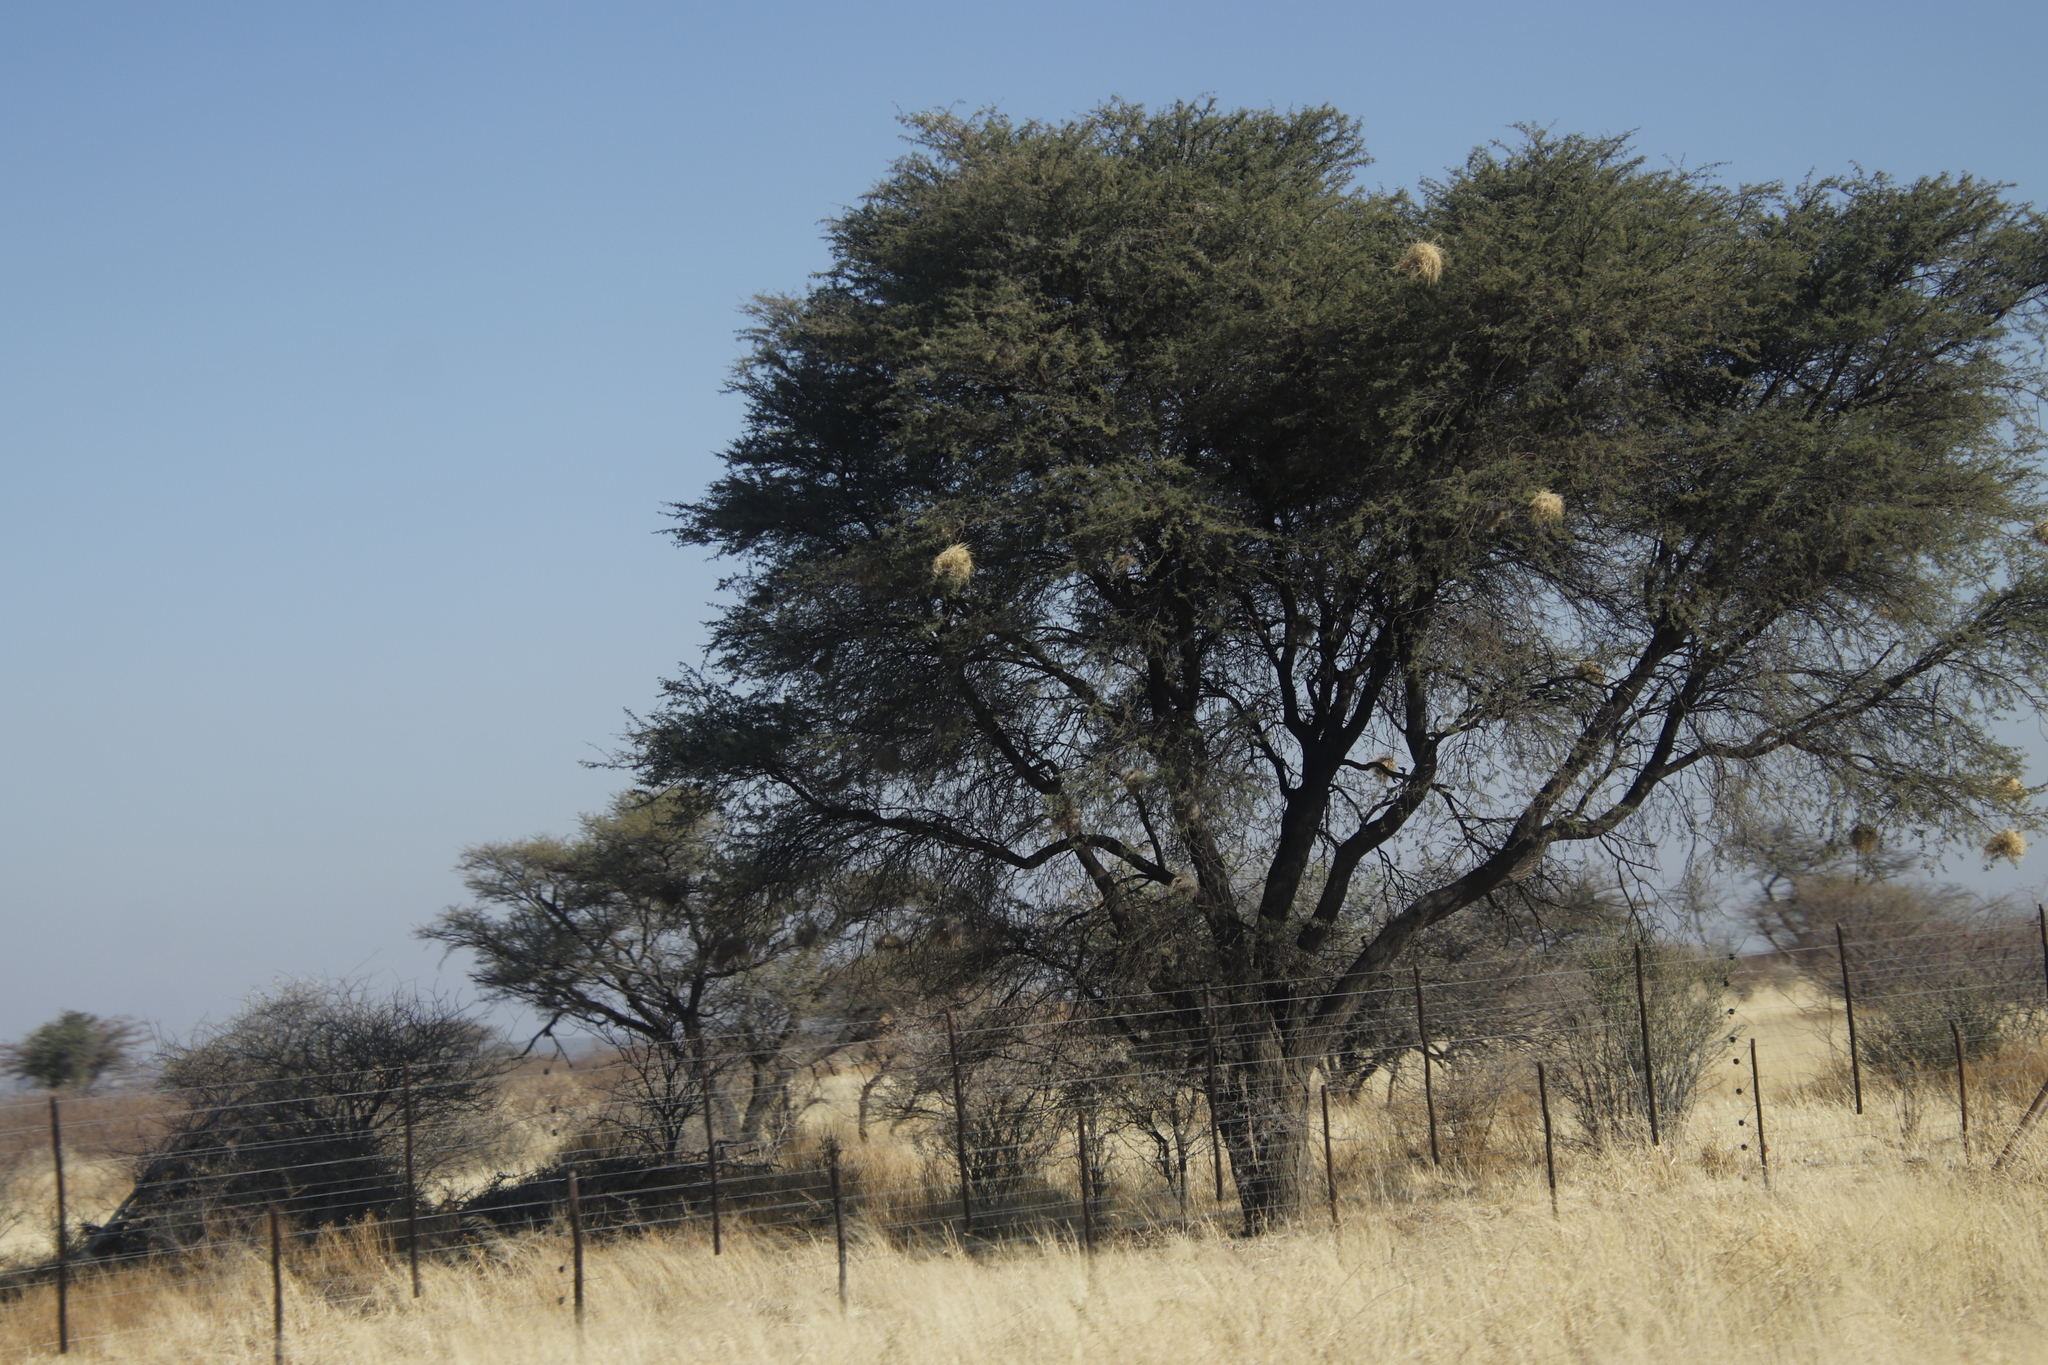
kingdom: Animalia
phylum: Chordata
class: Aves
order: Passeriformes
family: Passeridae
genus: Plocepasser
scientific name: Plocepasser mahali
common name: White-browed sparrow-weaver
